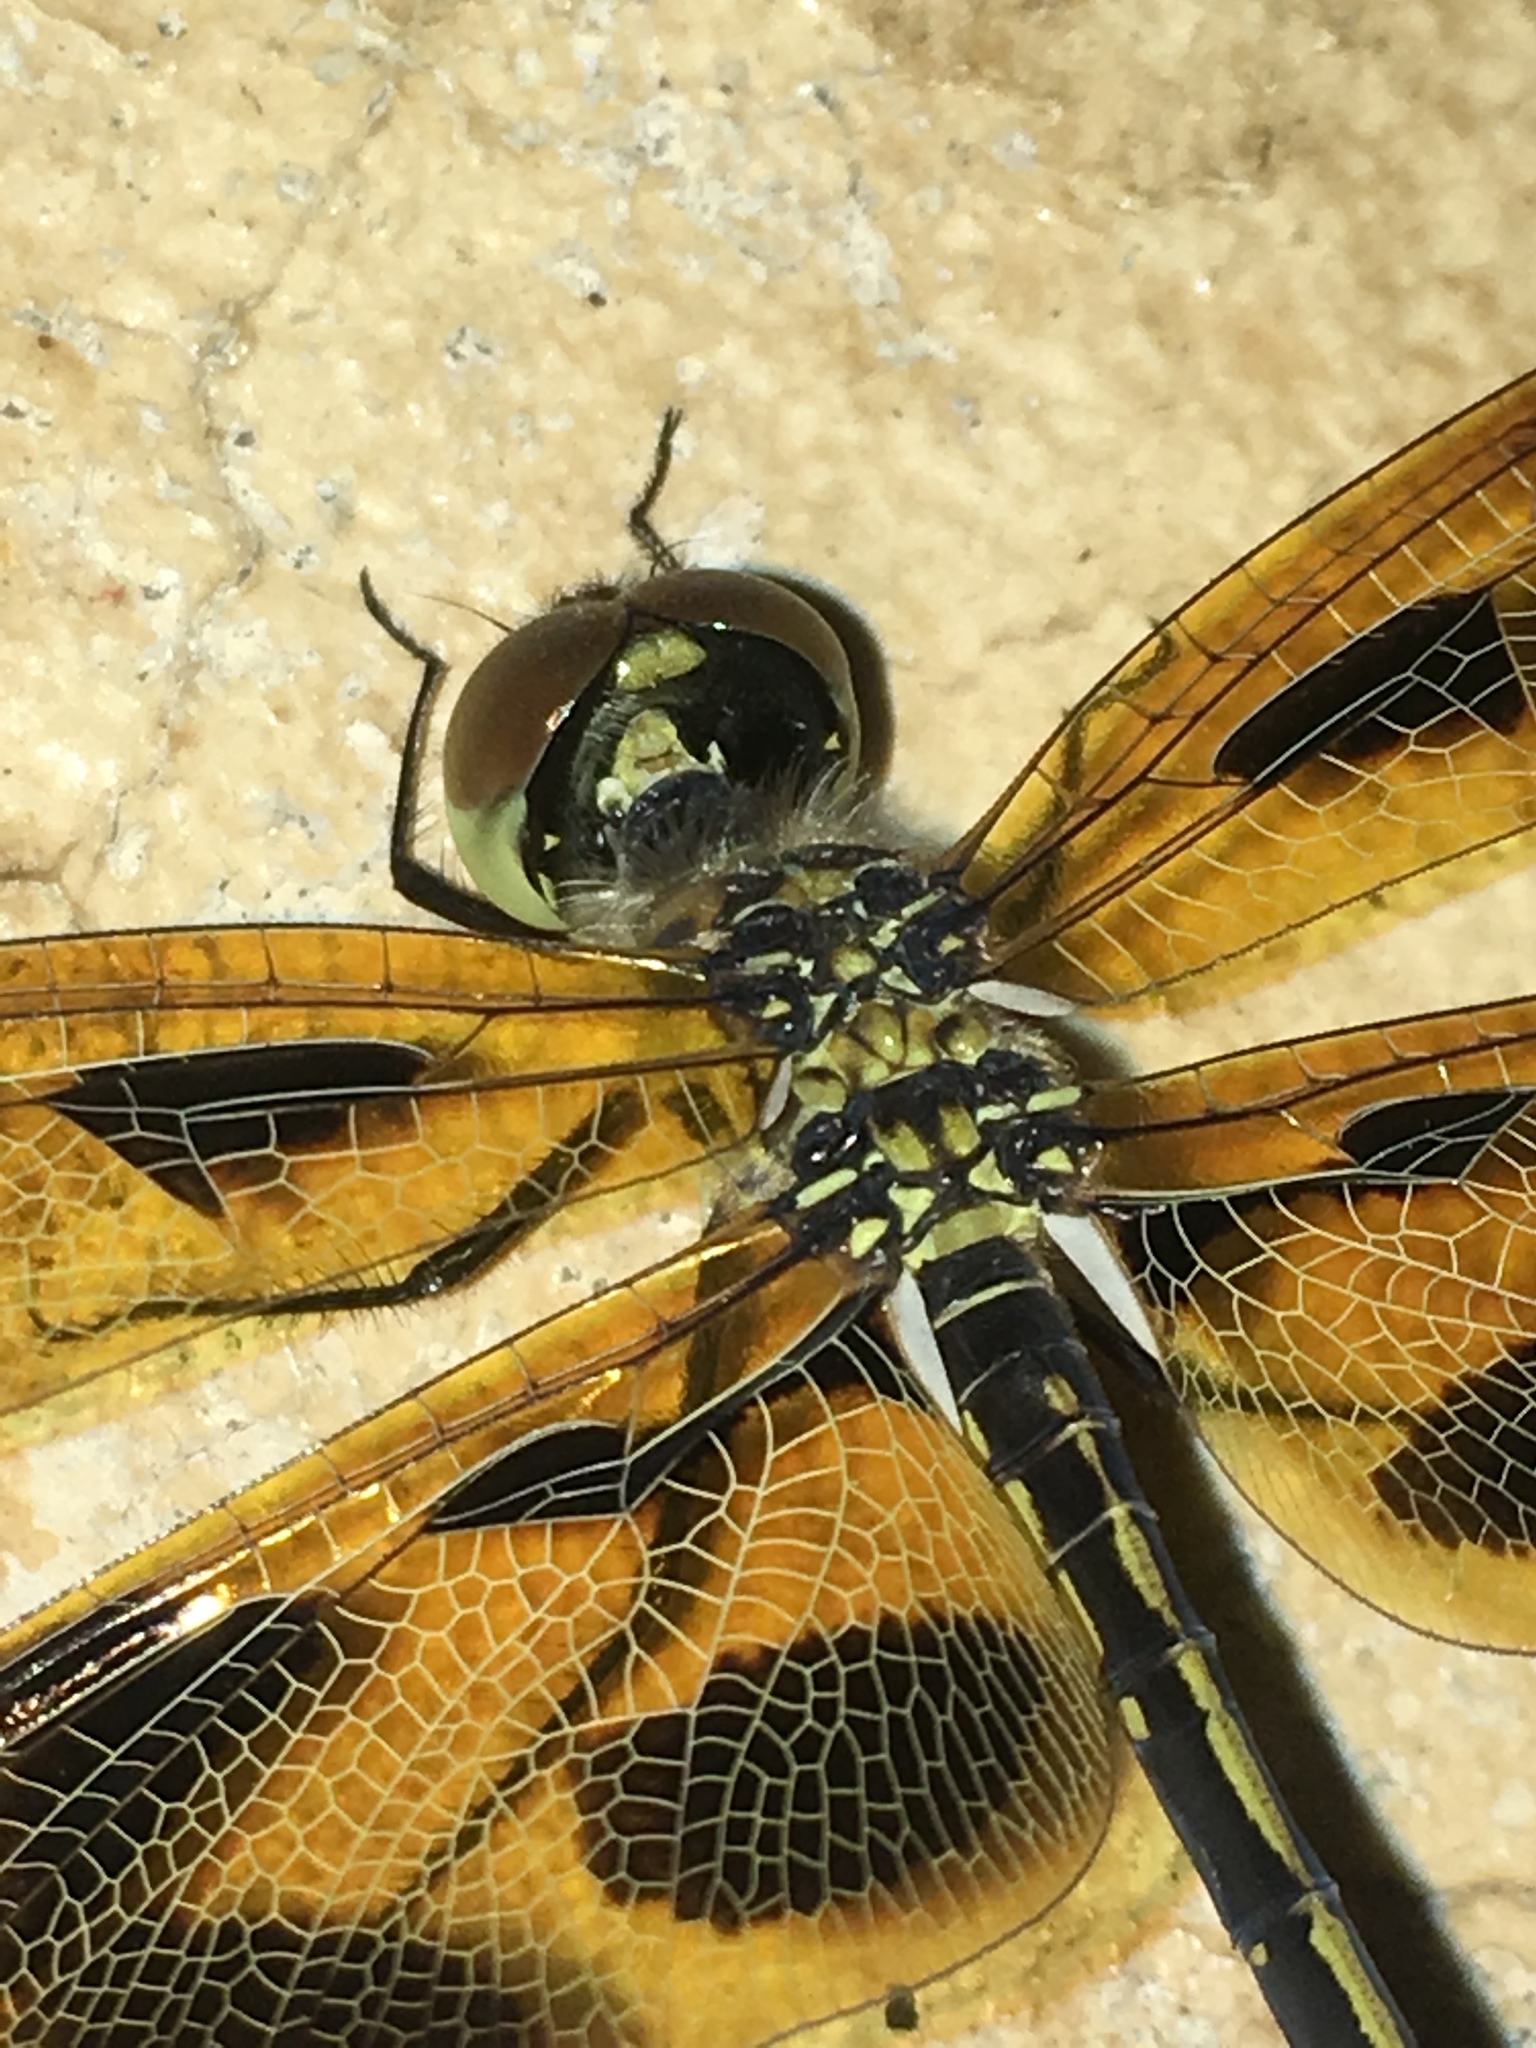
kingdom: Animalia
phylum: Arthropoda
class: Insecta
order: Odonata
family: Libellulidae
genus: Celithemis
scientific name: Celithemis eponina
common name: Halloween pennant
